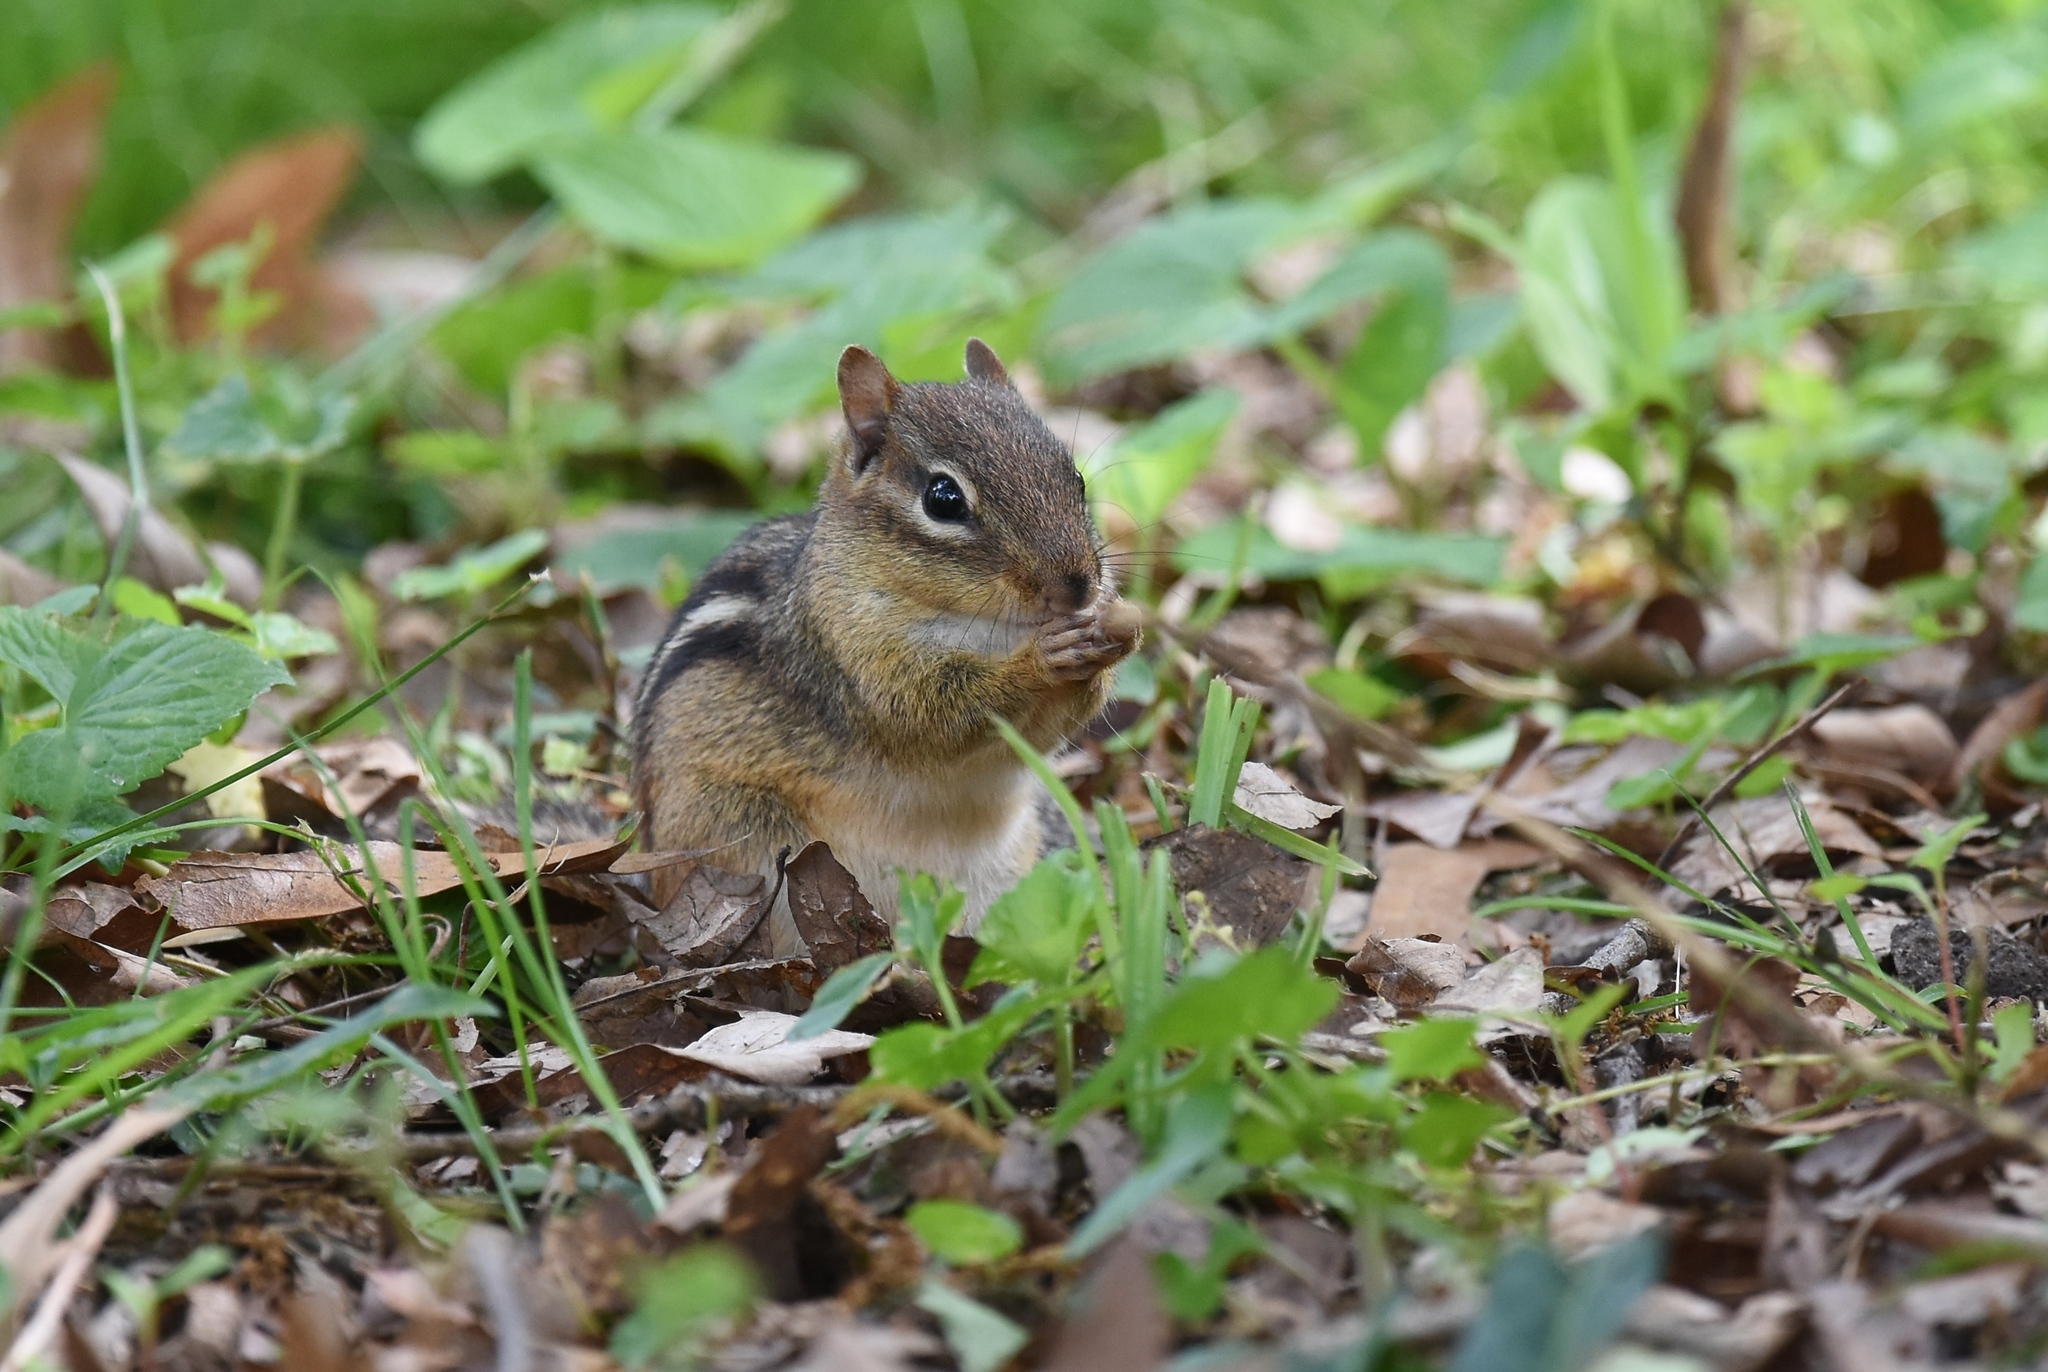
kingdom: Animalia
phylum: Chordata
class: Mammalia
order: Rodentia
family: Sciuridae
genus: Tamias
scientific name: Tamias striatus
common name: Eastern chipmunk
